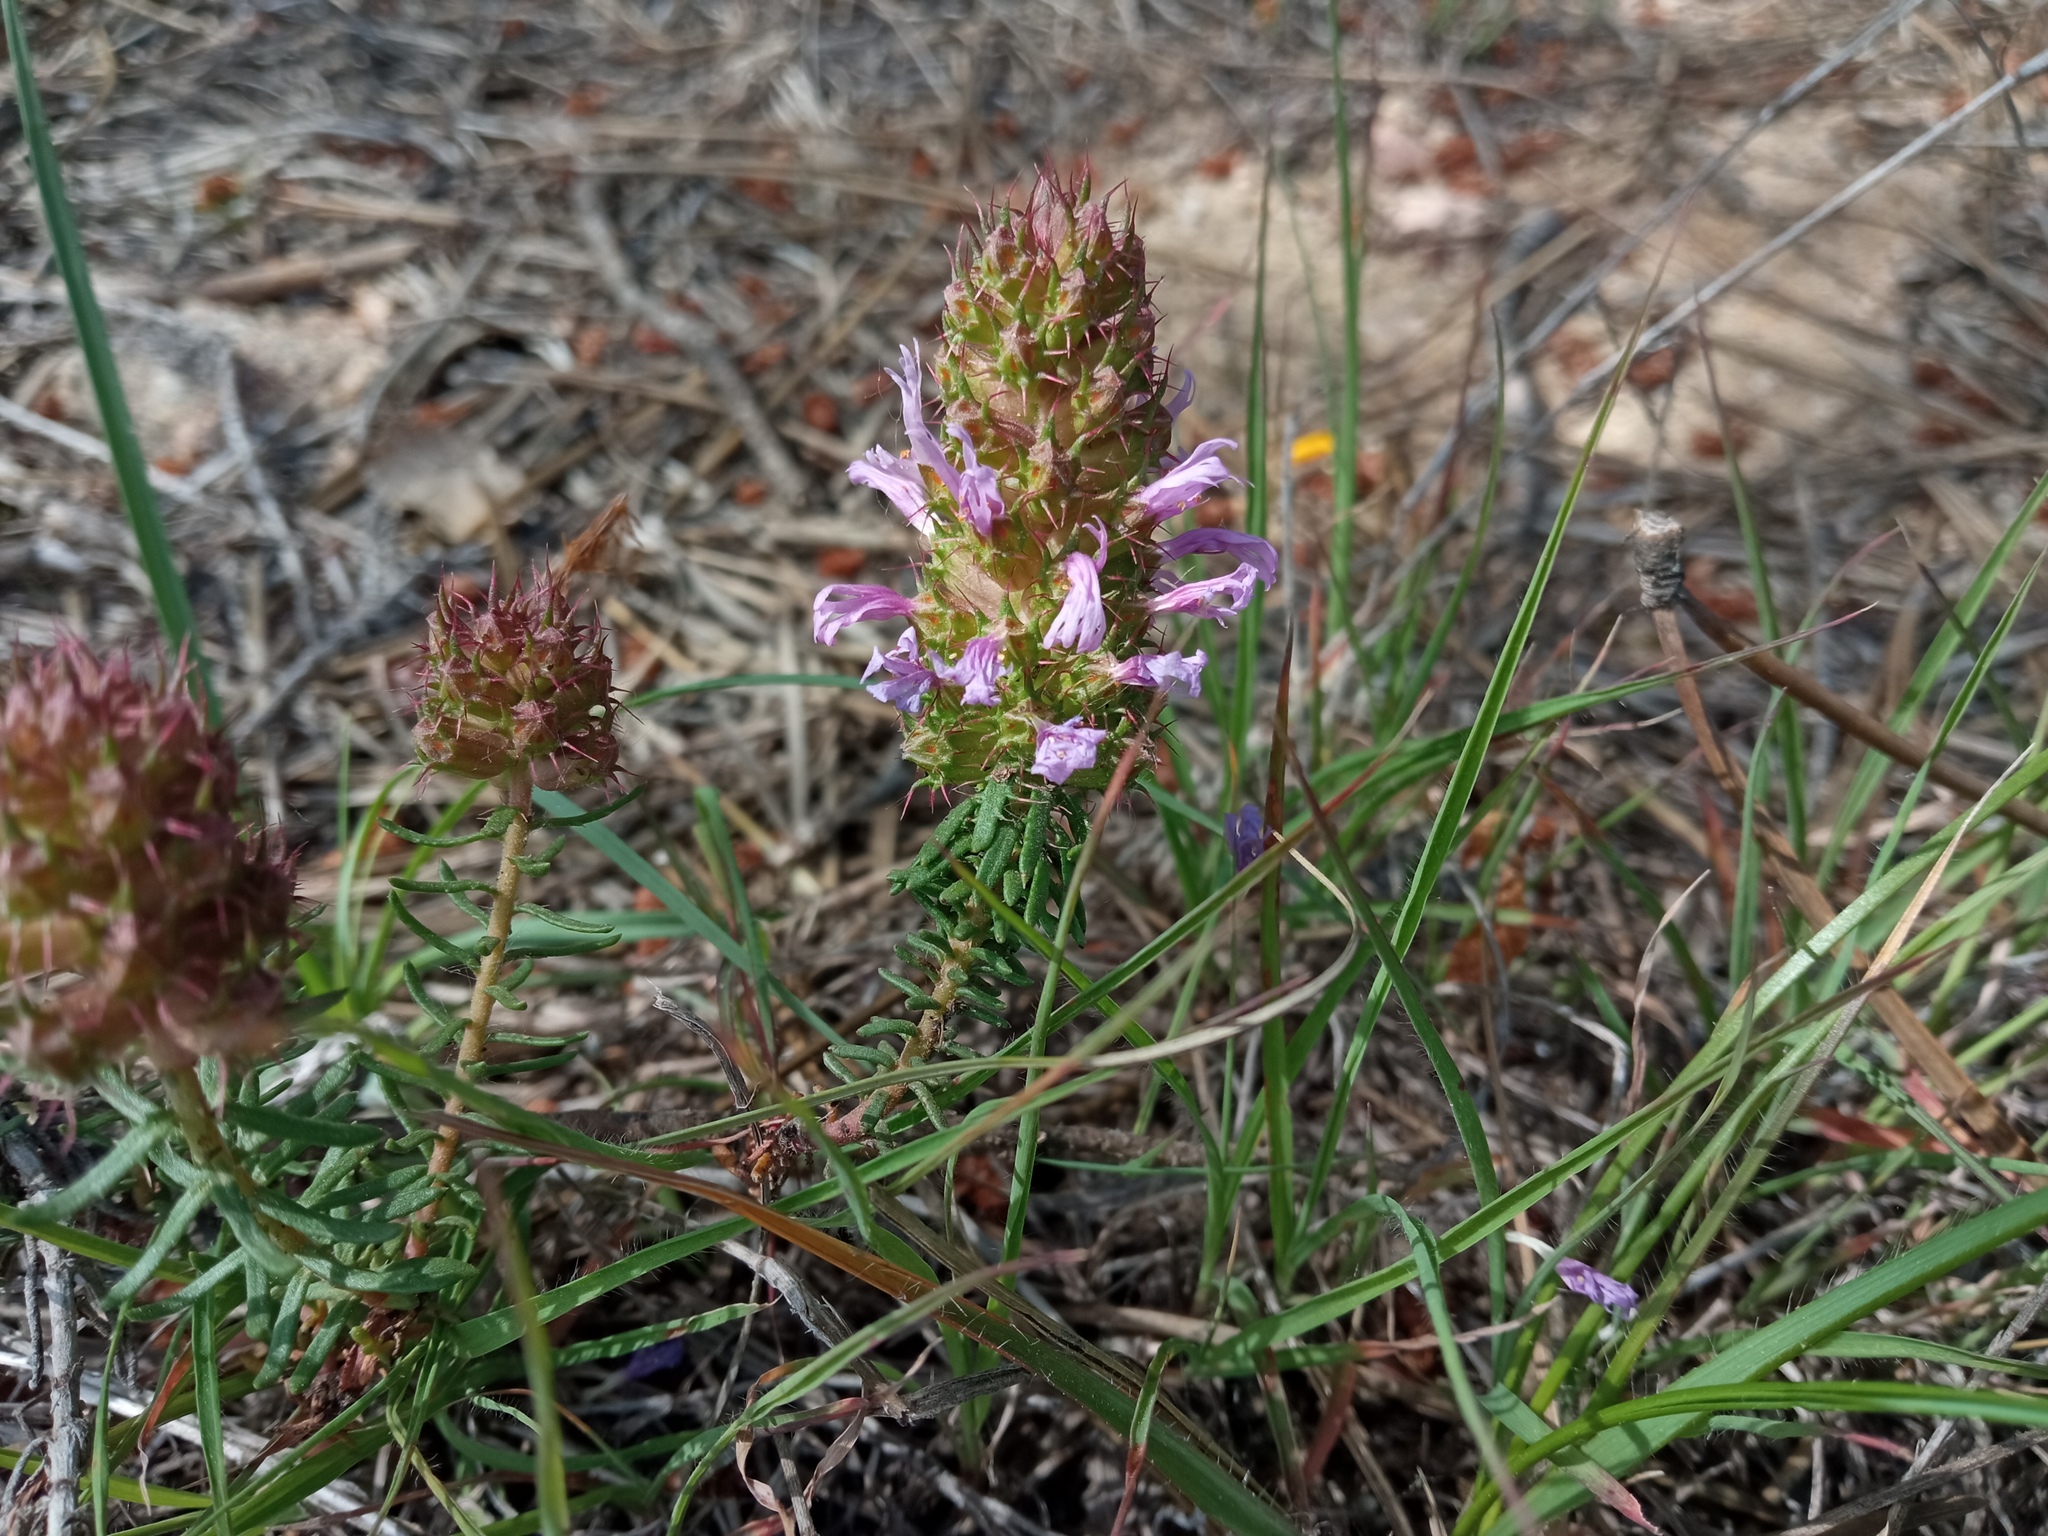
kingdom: Plantae
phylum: Tracheophyta
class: Magnoliopsida
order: Ericales
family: Primulaceae
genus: Coris
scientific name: Coris monspeliensis
